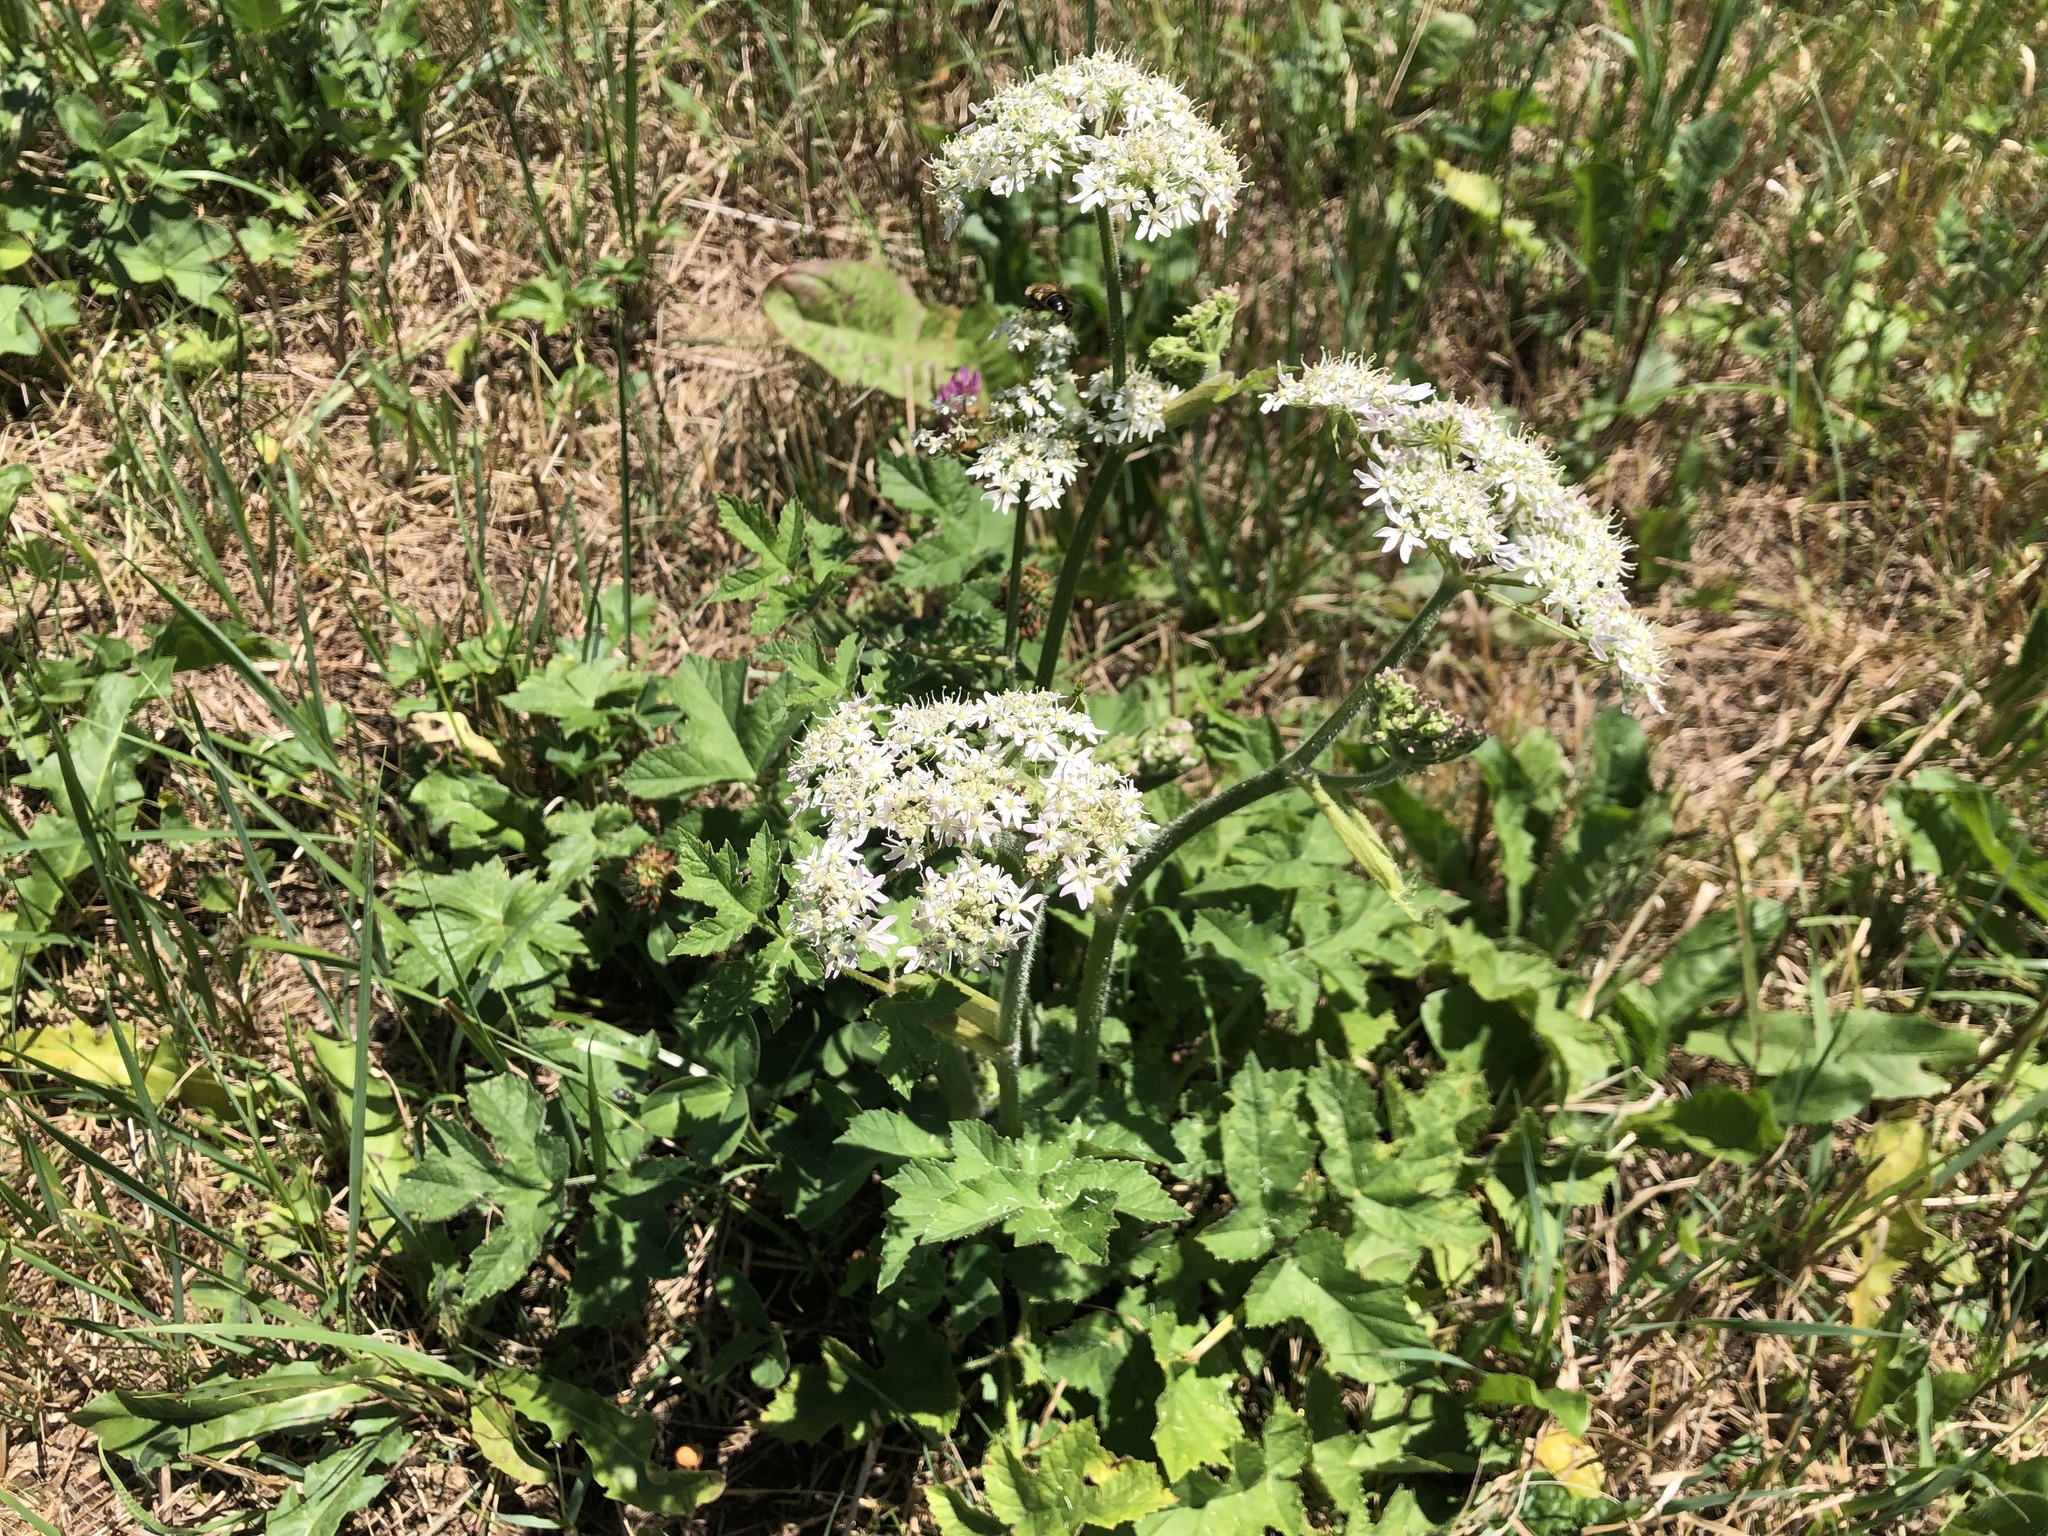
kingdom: Plantae
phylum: Tracheophyta
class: Magnoliopsida
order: Apiales
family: Apiaceae
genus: Heracleum
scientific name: Heracleum sphondylium
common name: Hogweed
